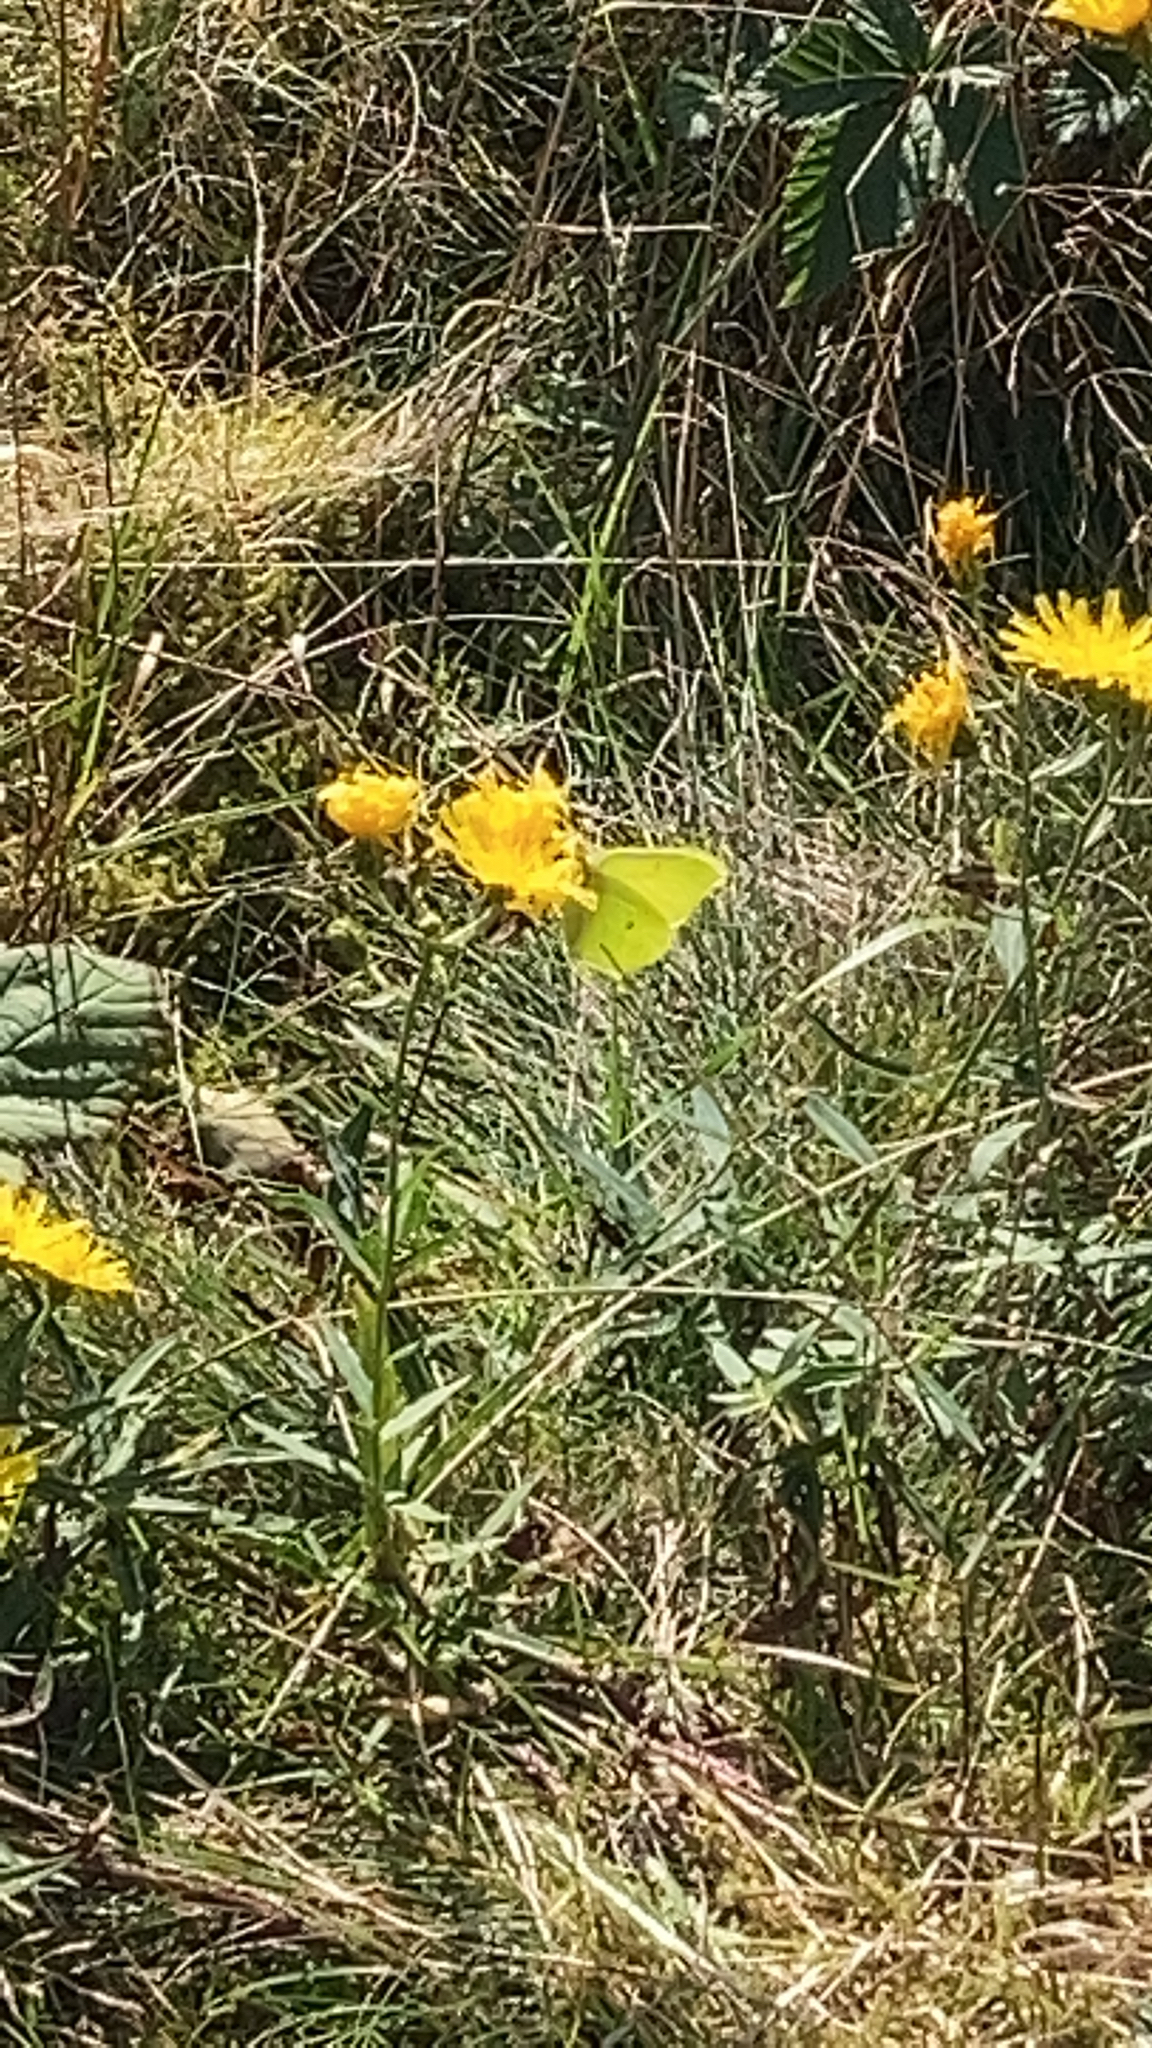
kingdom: Animalia
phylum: Arthropoda
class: Insecta
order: Lepidoptera
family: Pieridae
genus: Gonepteryx
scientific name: Gonepteryx rhamni
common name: Brimstone
